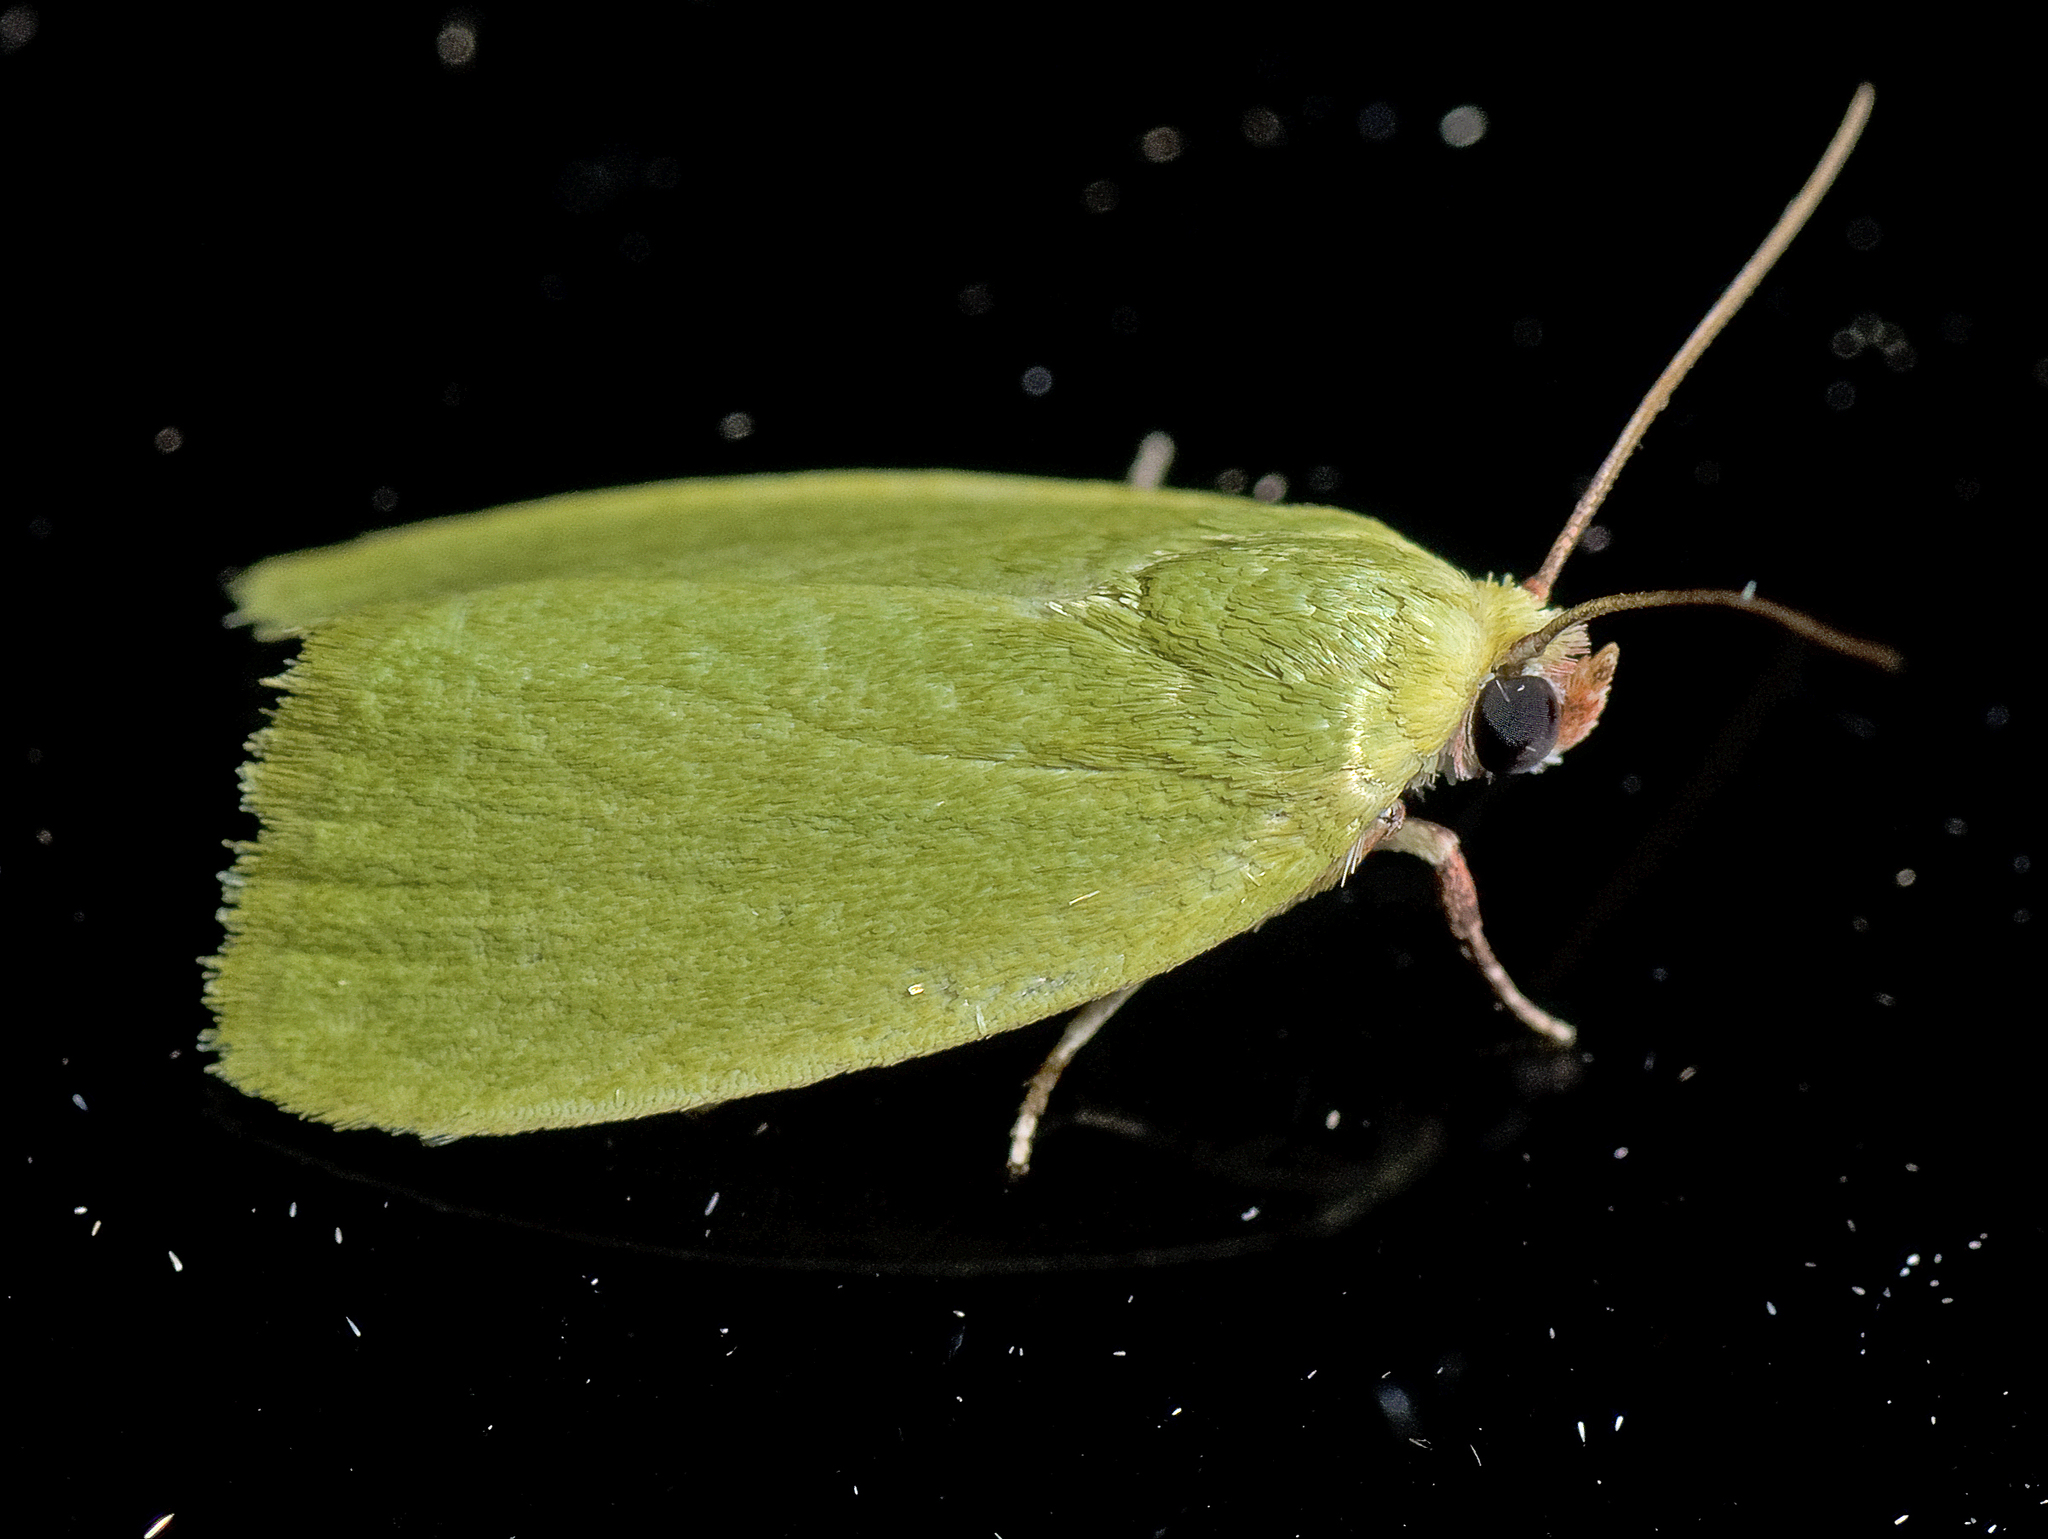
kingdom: Animalia
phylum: Arthropoda
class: Insecta
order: Lepidoptera
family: Nolidae
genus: Earias
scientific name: Earias smaragdina
